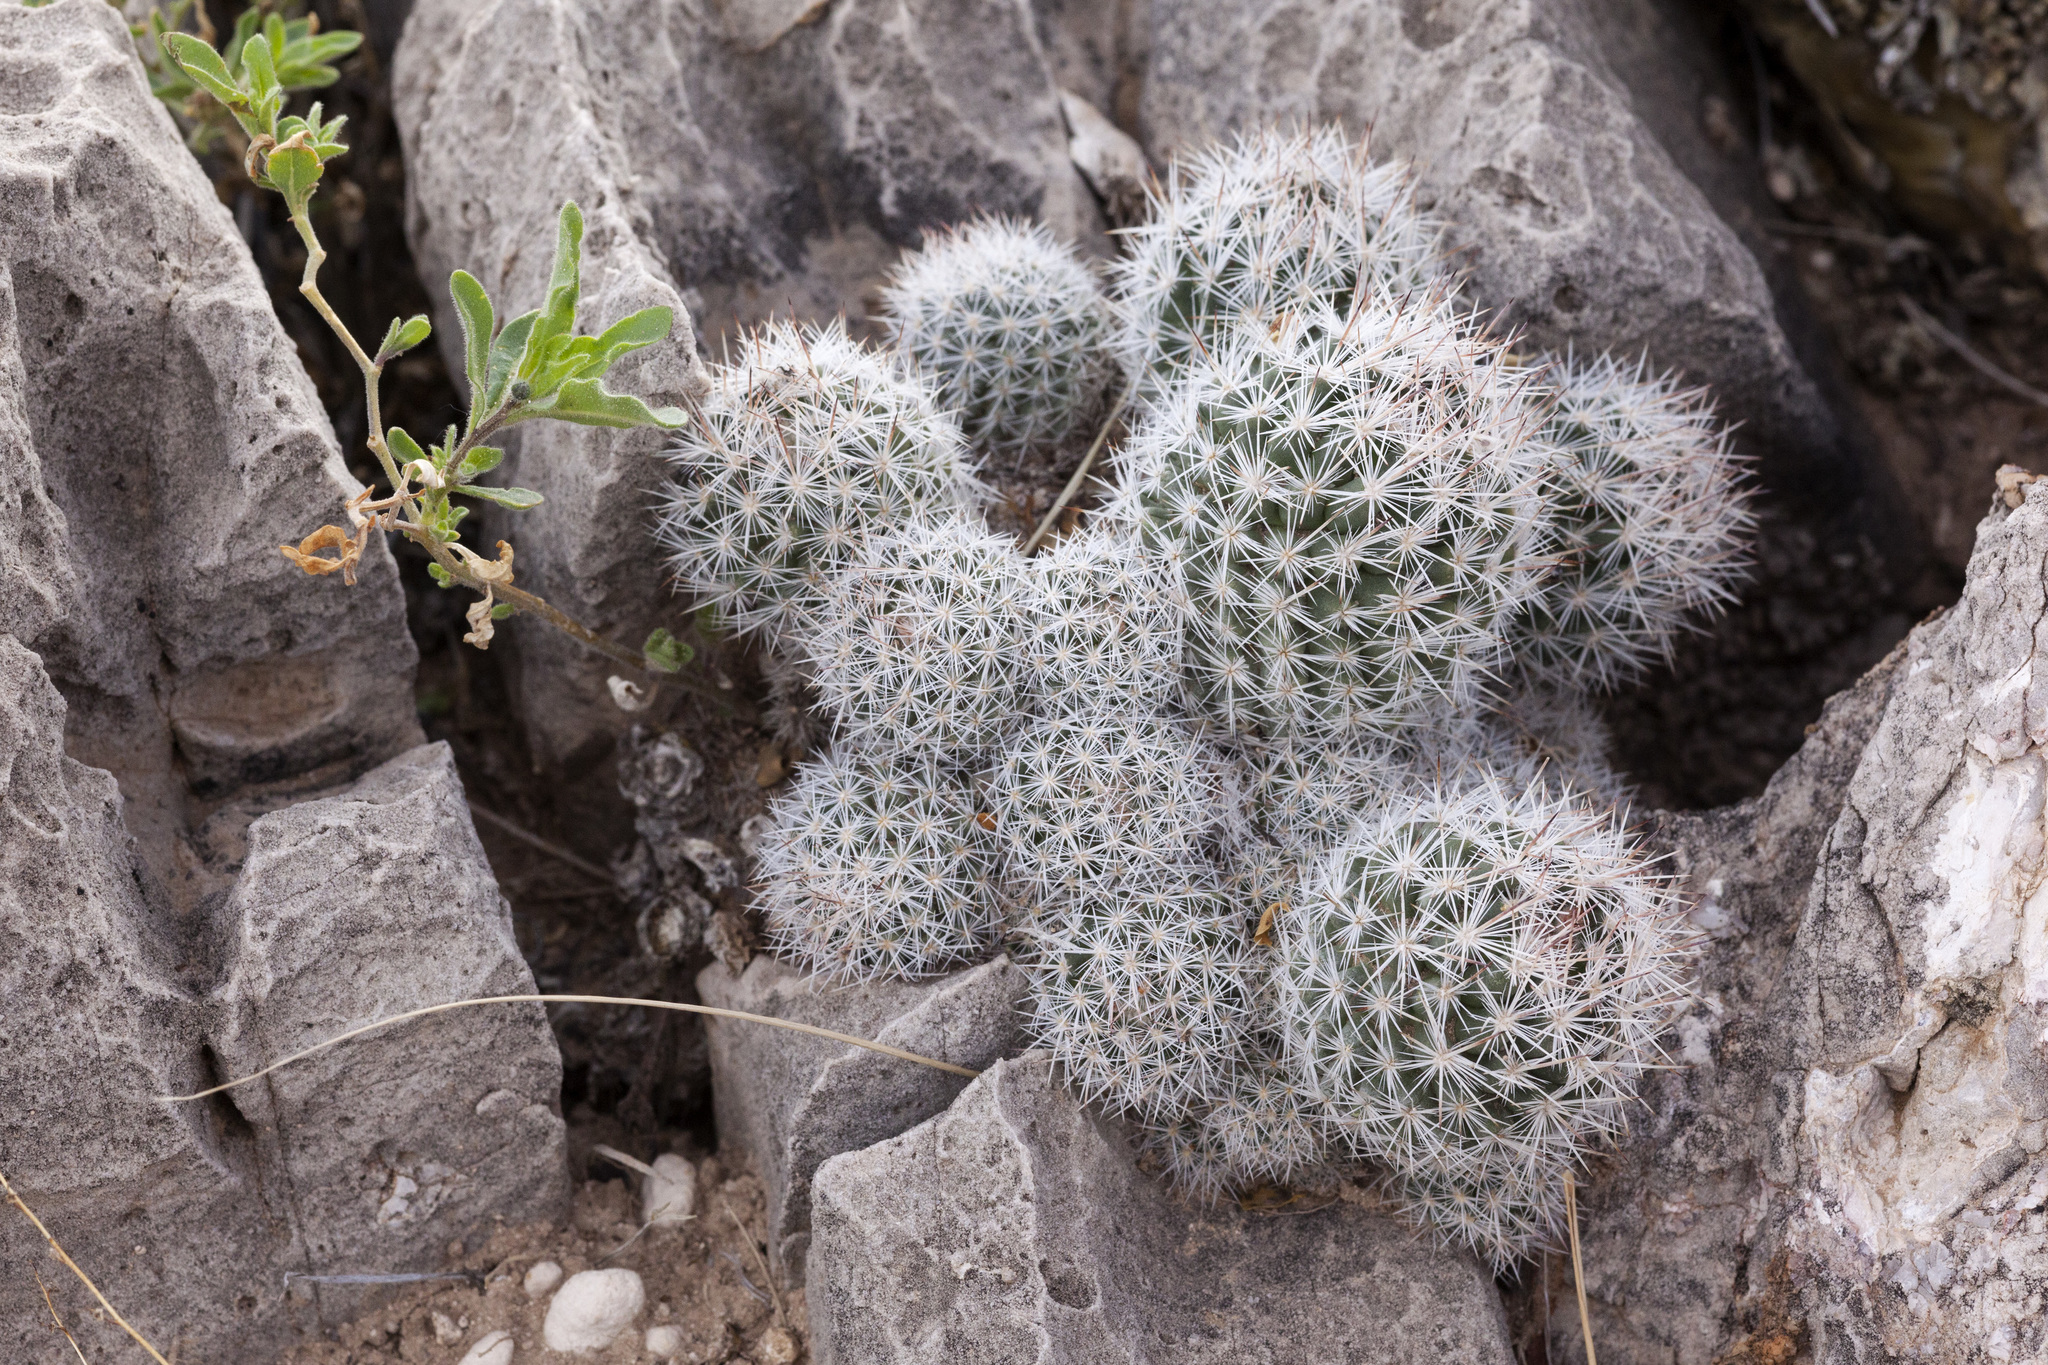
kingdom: Plantae
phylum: Tracheophyta
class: Magnoliopsida
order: Caryophyllales
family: Cactaceae
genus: Pelecyphora
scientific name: Pelecyphora sneedii
